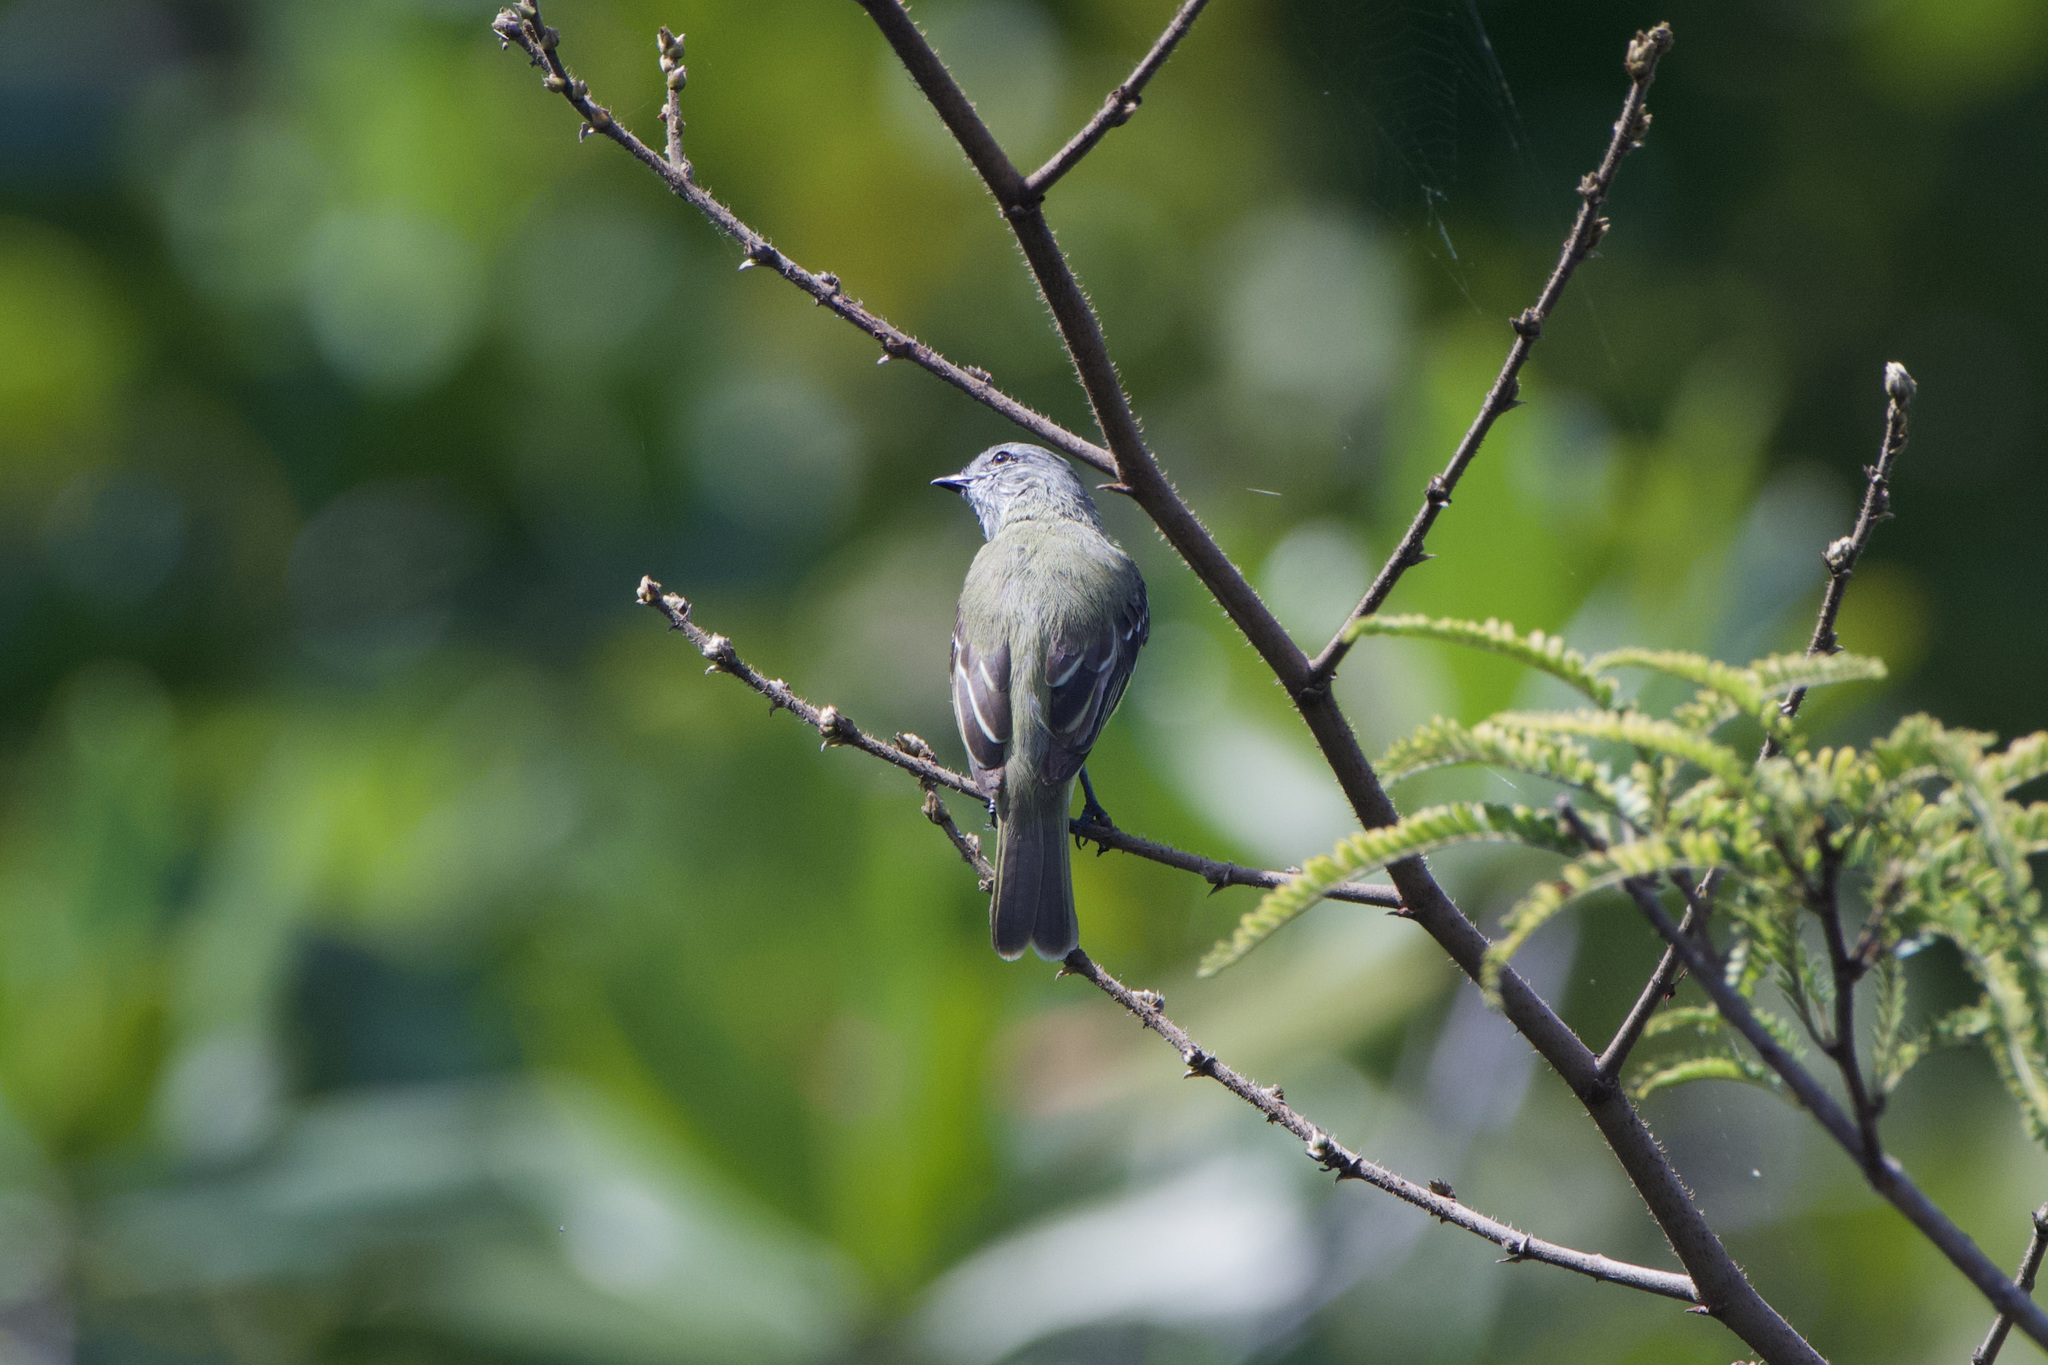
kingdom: Animalia
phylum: Chordata
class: Aves
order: Passeriformes
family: Tyrannidae
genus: Tyrannulus
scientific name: Tyrannulus elatus
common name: Yellow-crowned tyrannulet
